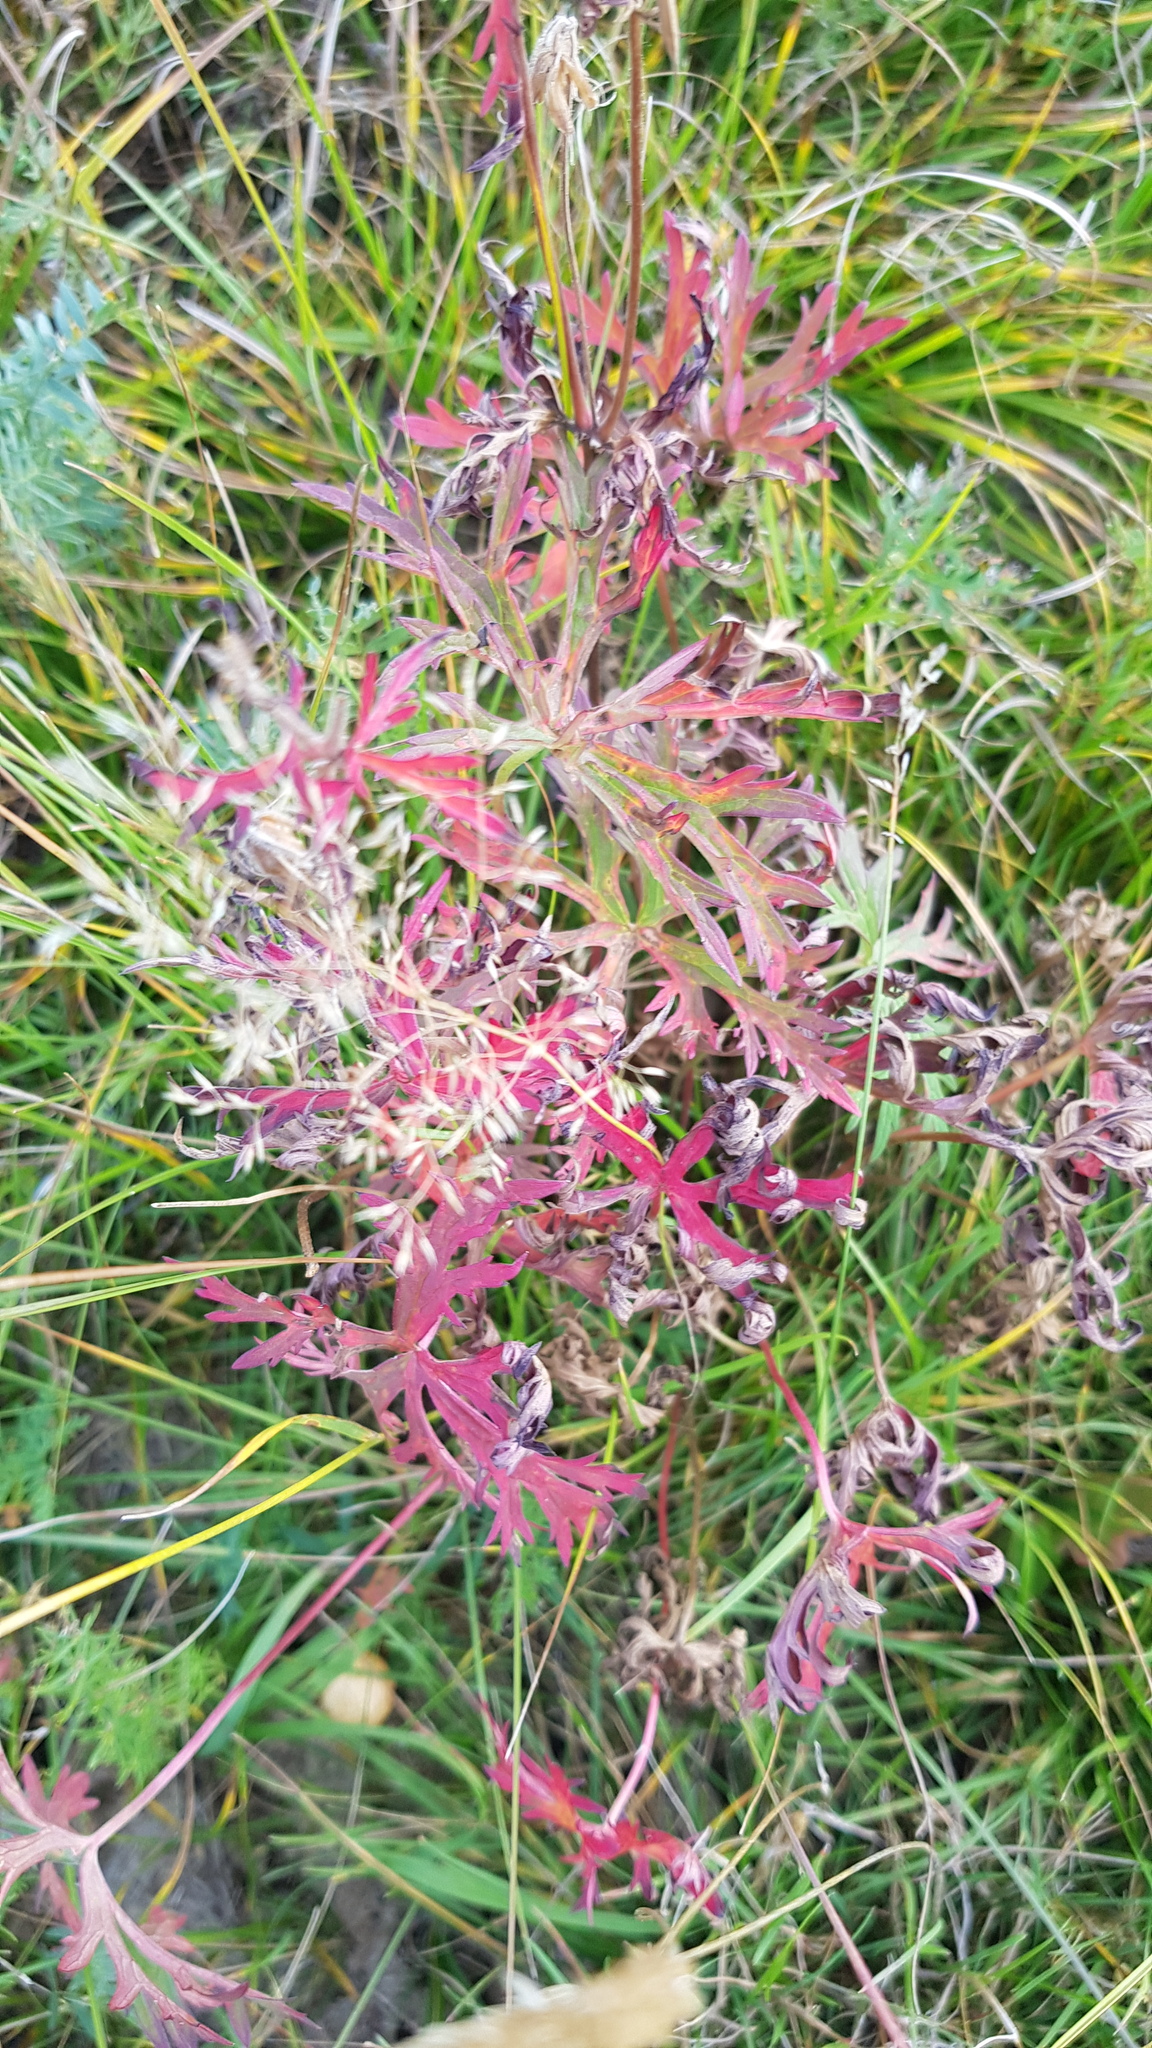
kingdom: Plantae
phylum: Tracheophyta
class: Magnoliopsida
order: Geraniales
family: Geraniaceae
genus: Geranium
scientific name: Geranium pratense
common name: Meadow crane's-bill
